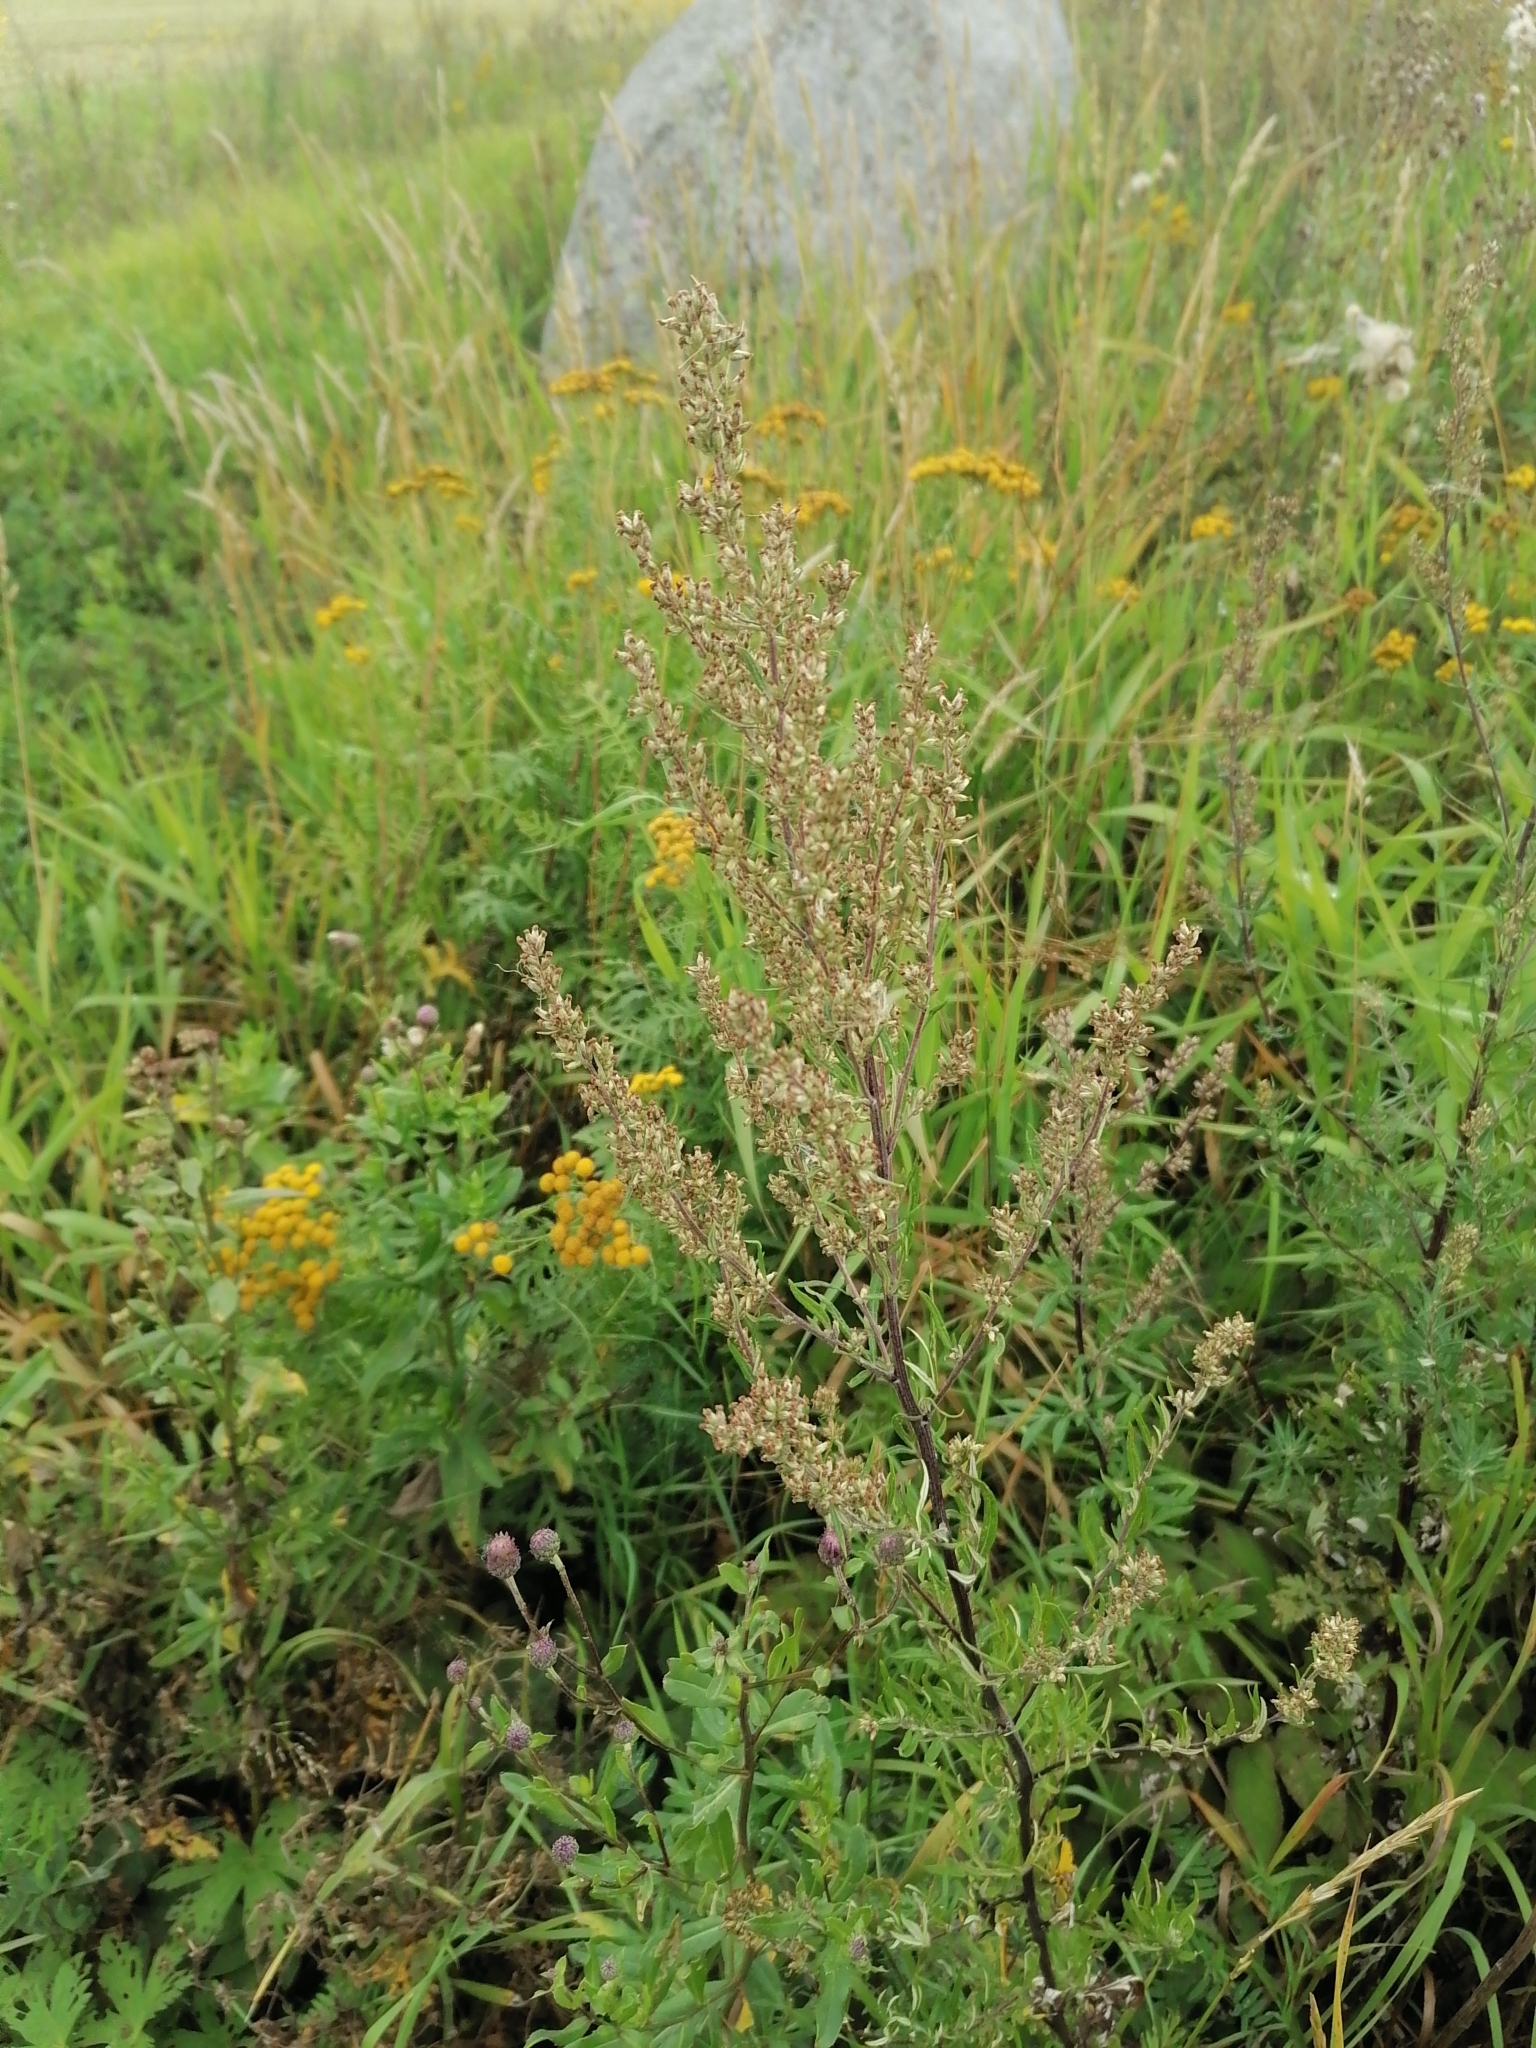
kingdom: Plantae
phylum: Tracheophyta
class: Magnoliopsida
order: Asterales
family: Asteraceae
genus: Artemisia
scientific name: Artemisia vulgaris
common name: Mugwort
